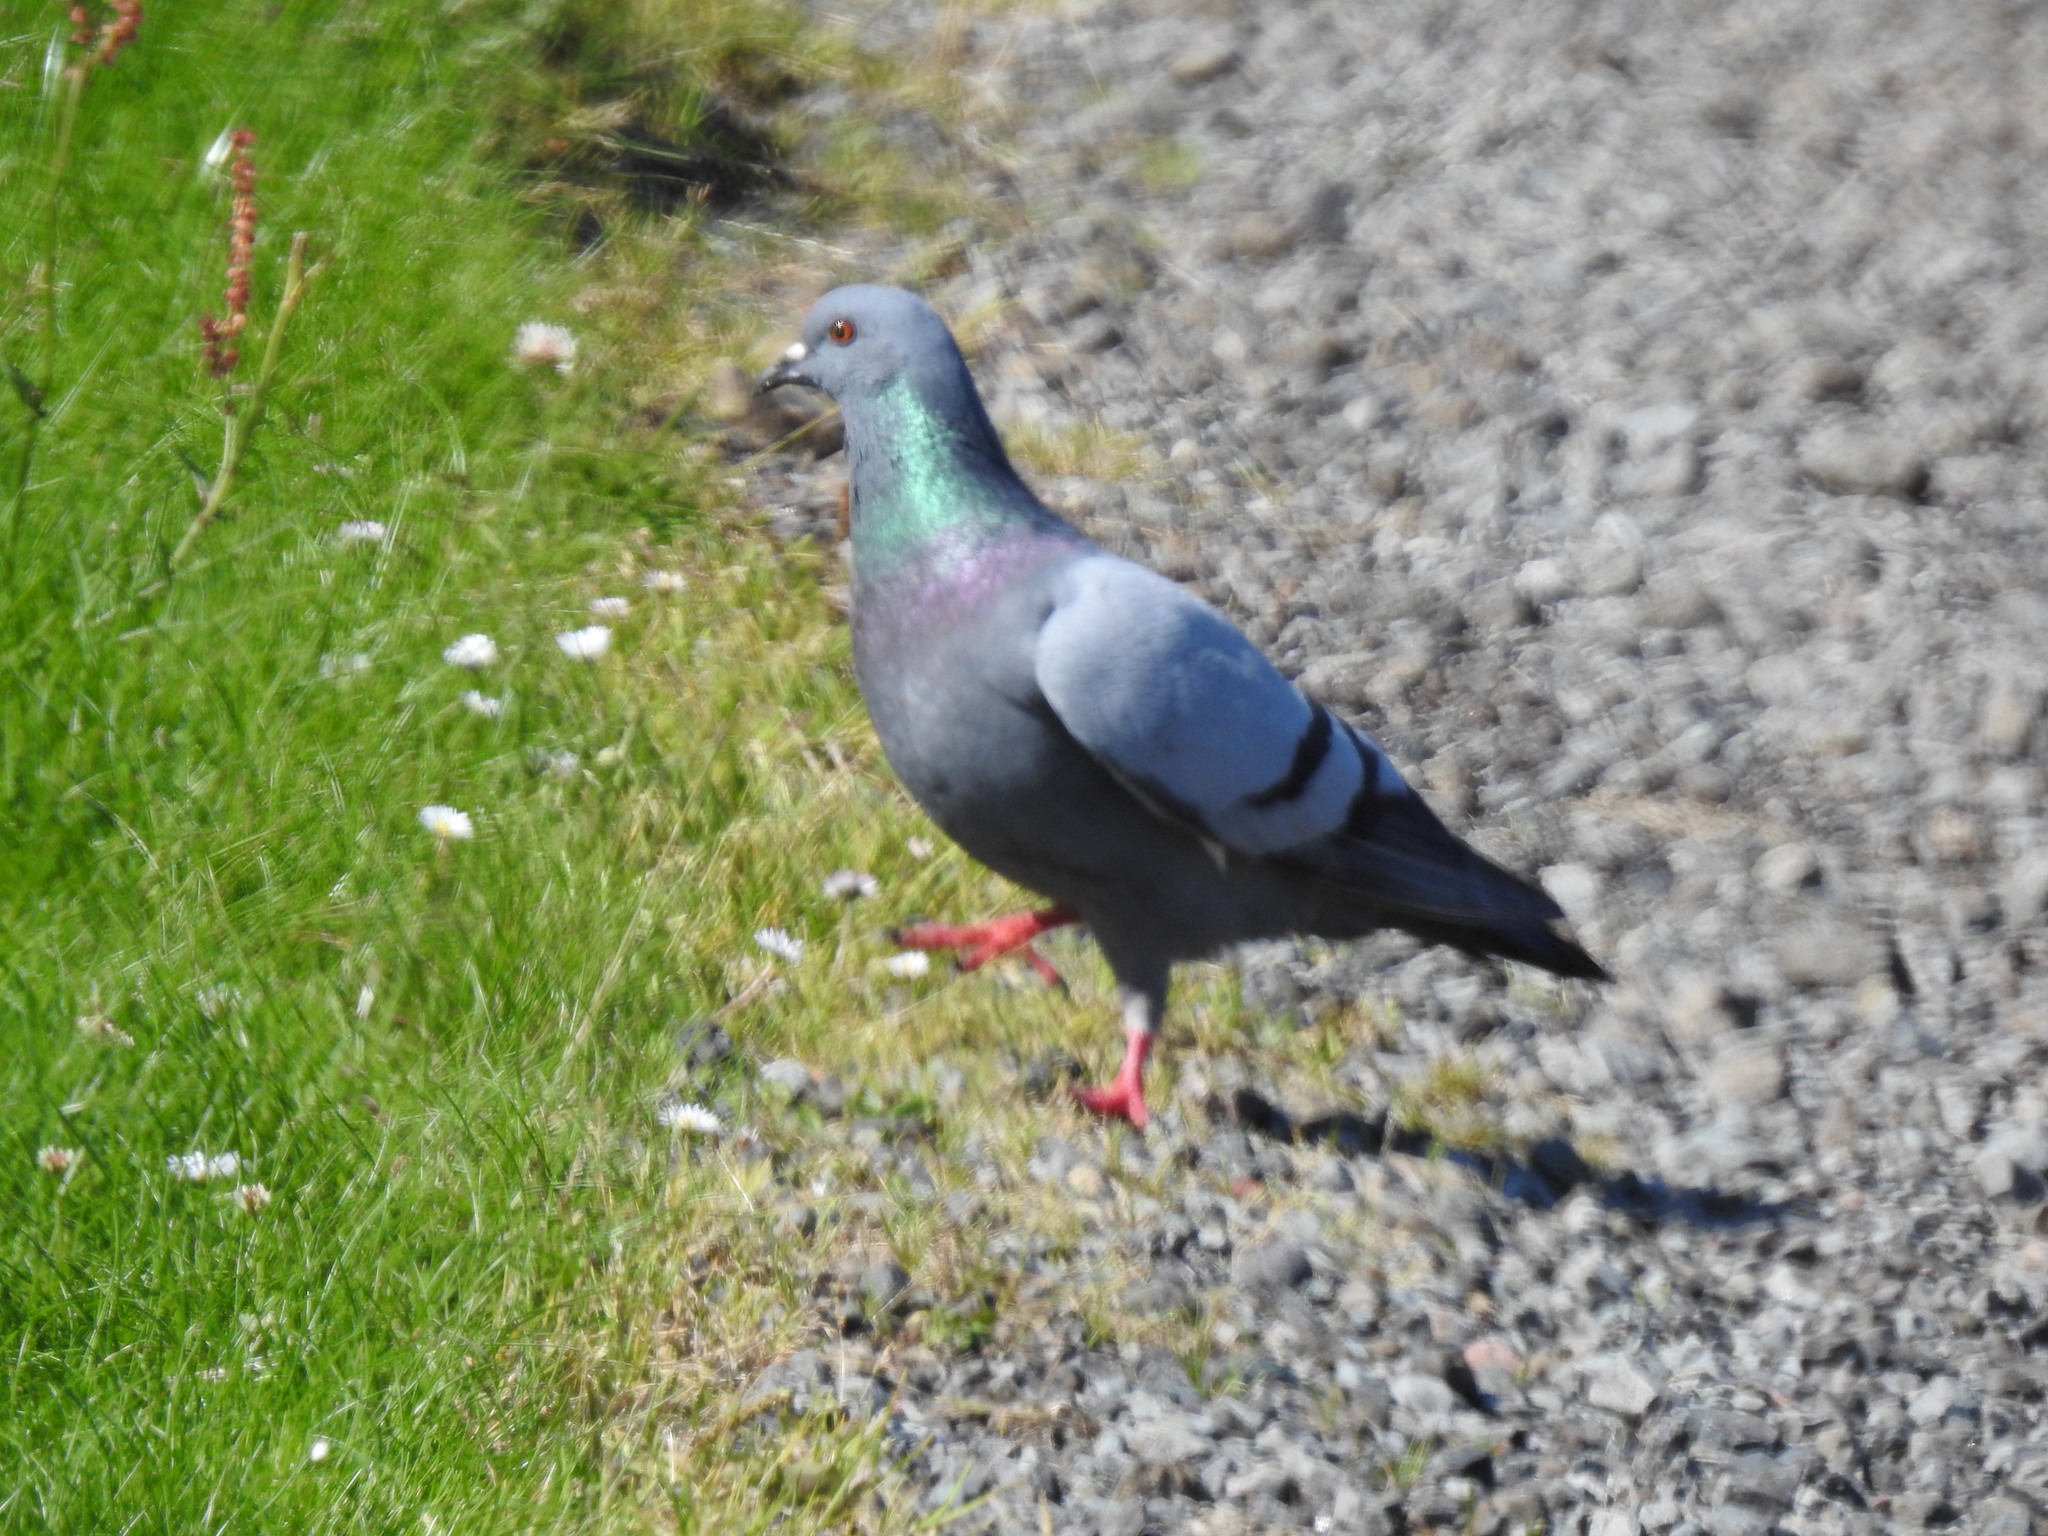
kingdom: Animalia
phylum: Chordata
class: Aves
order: Columbiformes
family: Columbidae
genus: Columba
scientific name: Columba livia
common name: Rock pigeon
